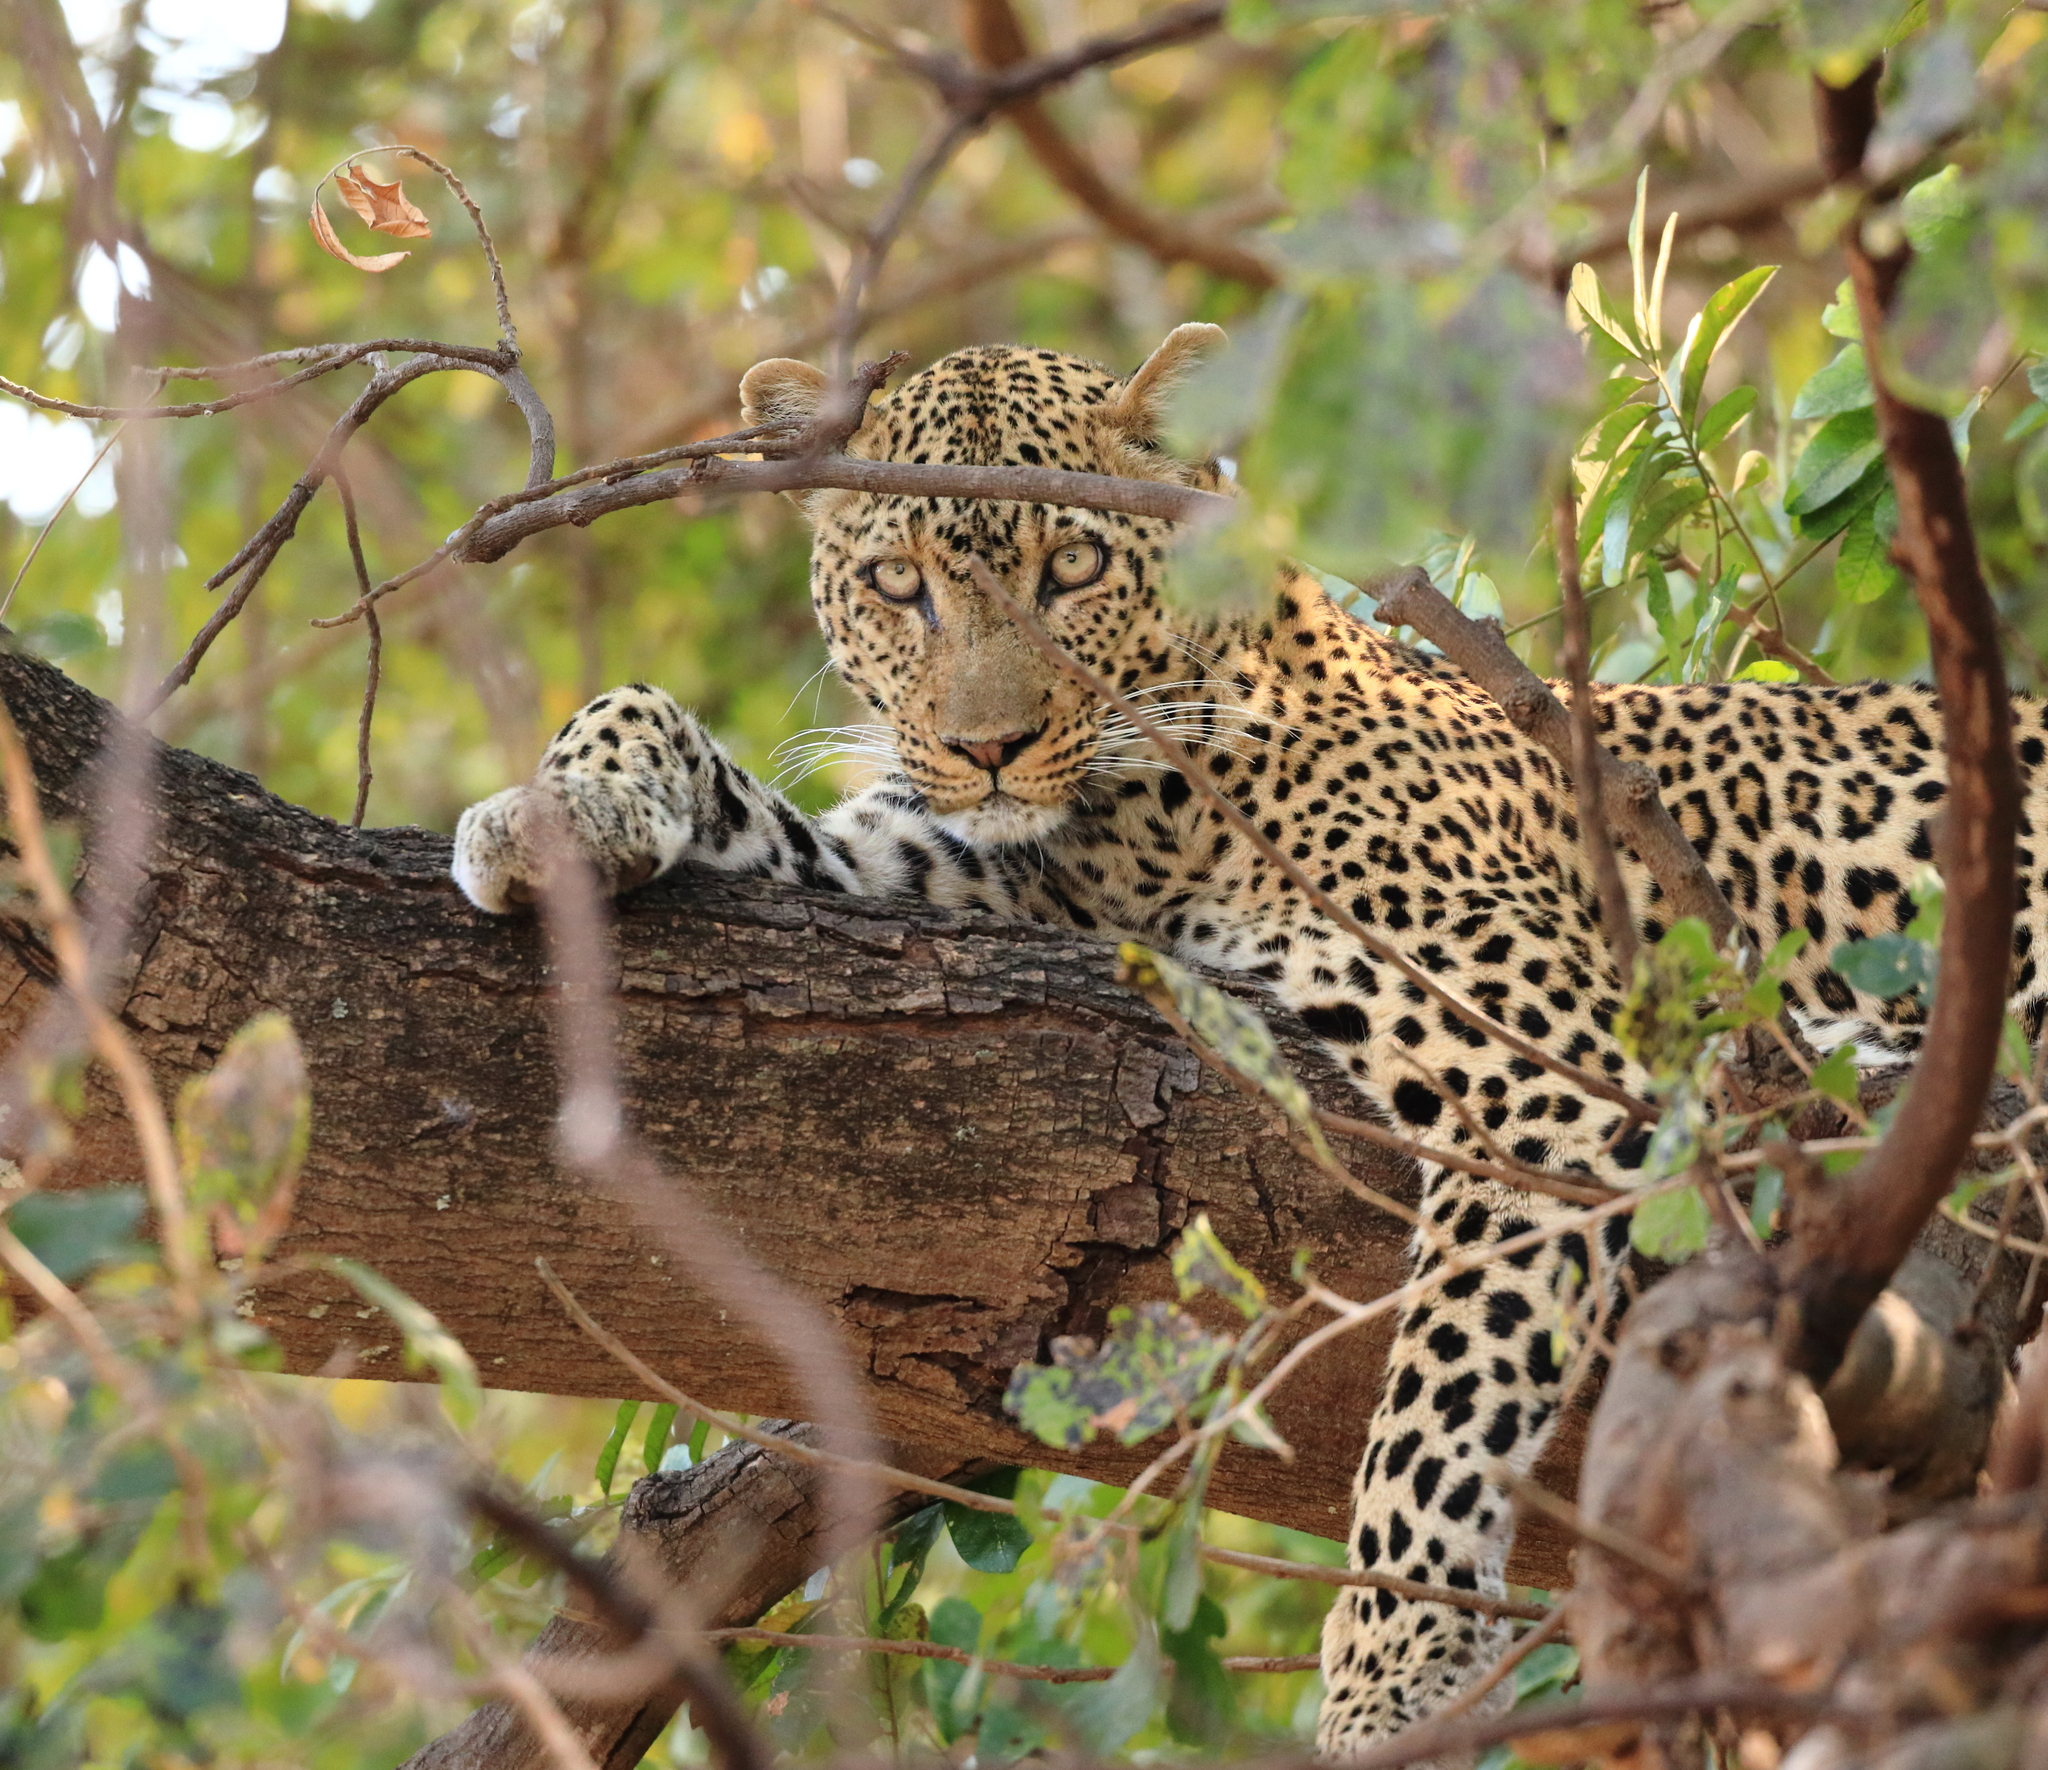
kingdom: Animalia
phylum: Chordata
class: Mammalia
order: Carnivora
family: Felidae
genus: Panthera
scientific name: Panthera pardus
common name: Leopard
